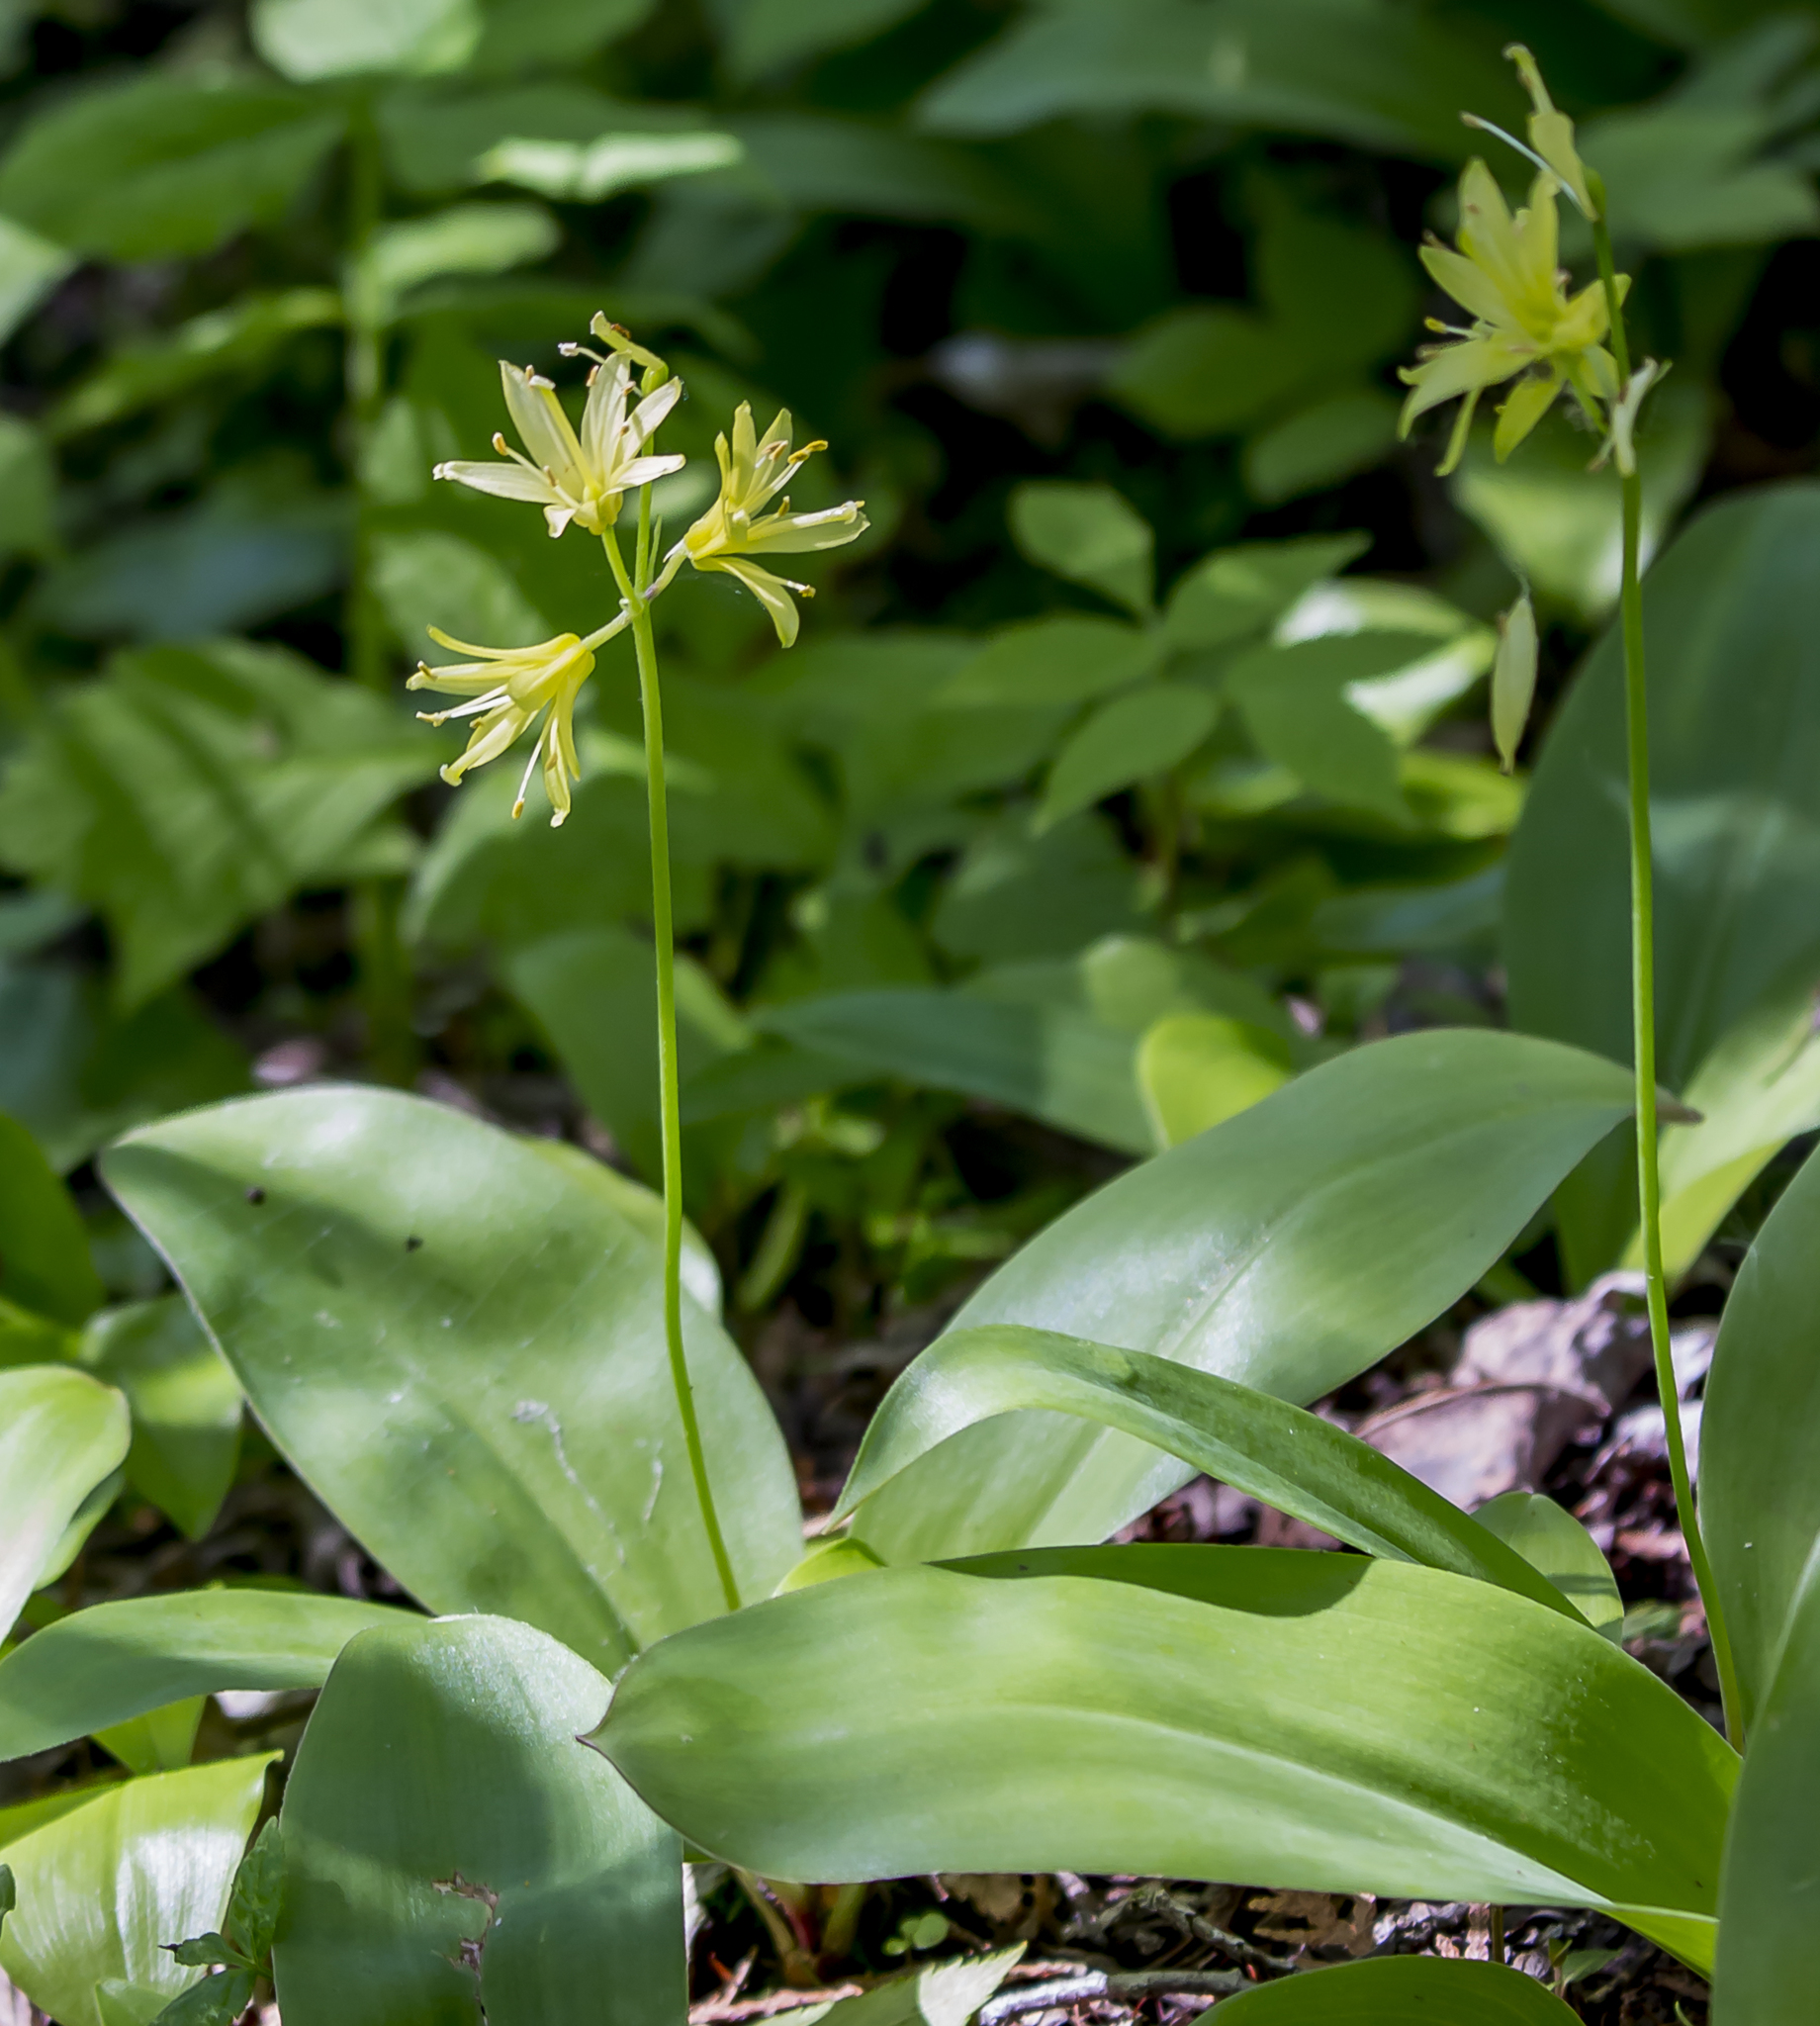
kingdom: Plantae
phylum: Tracheophyta
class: Liliopsida
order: Liliales
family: Liliaceae
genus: Clintonia
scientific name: Clintonia borealis
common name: Yellow clintonia
